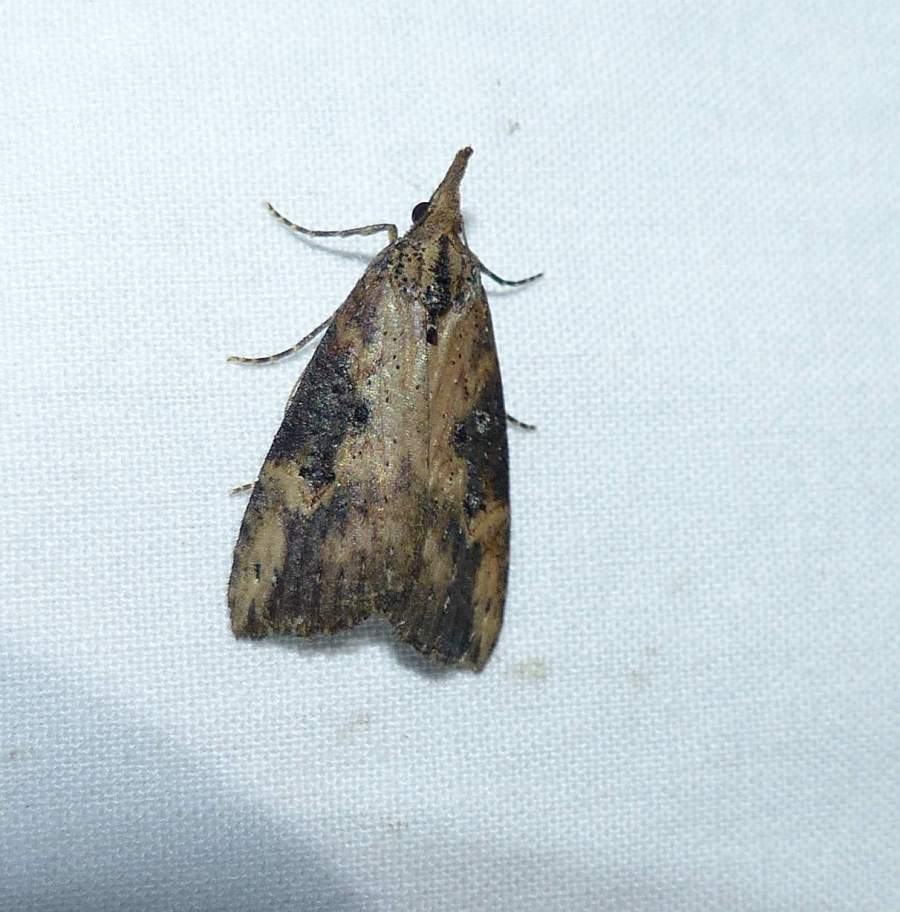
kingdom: Animalia
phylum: Arthropoda
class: Insecta
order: Lepidoptera
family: Erebidae
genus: Hypena
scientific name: Hypena humuli
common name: Hop vine snout
